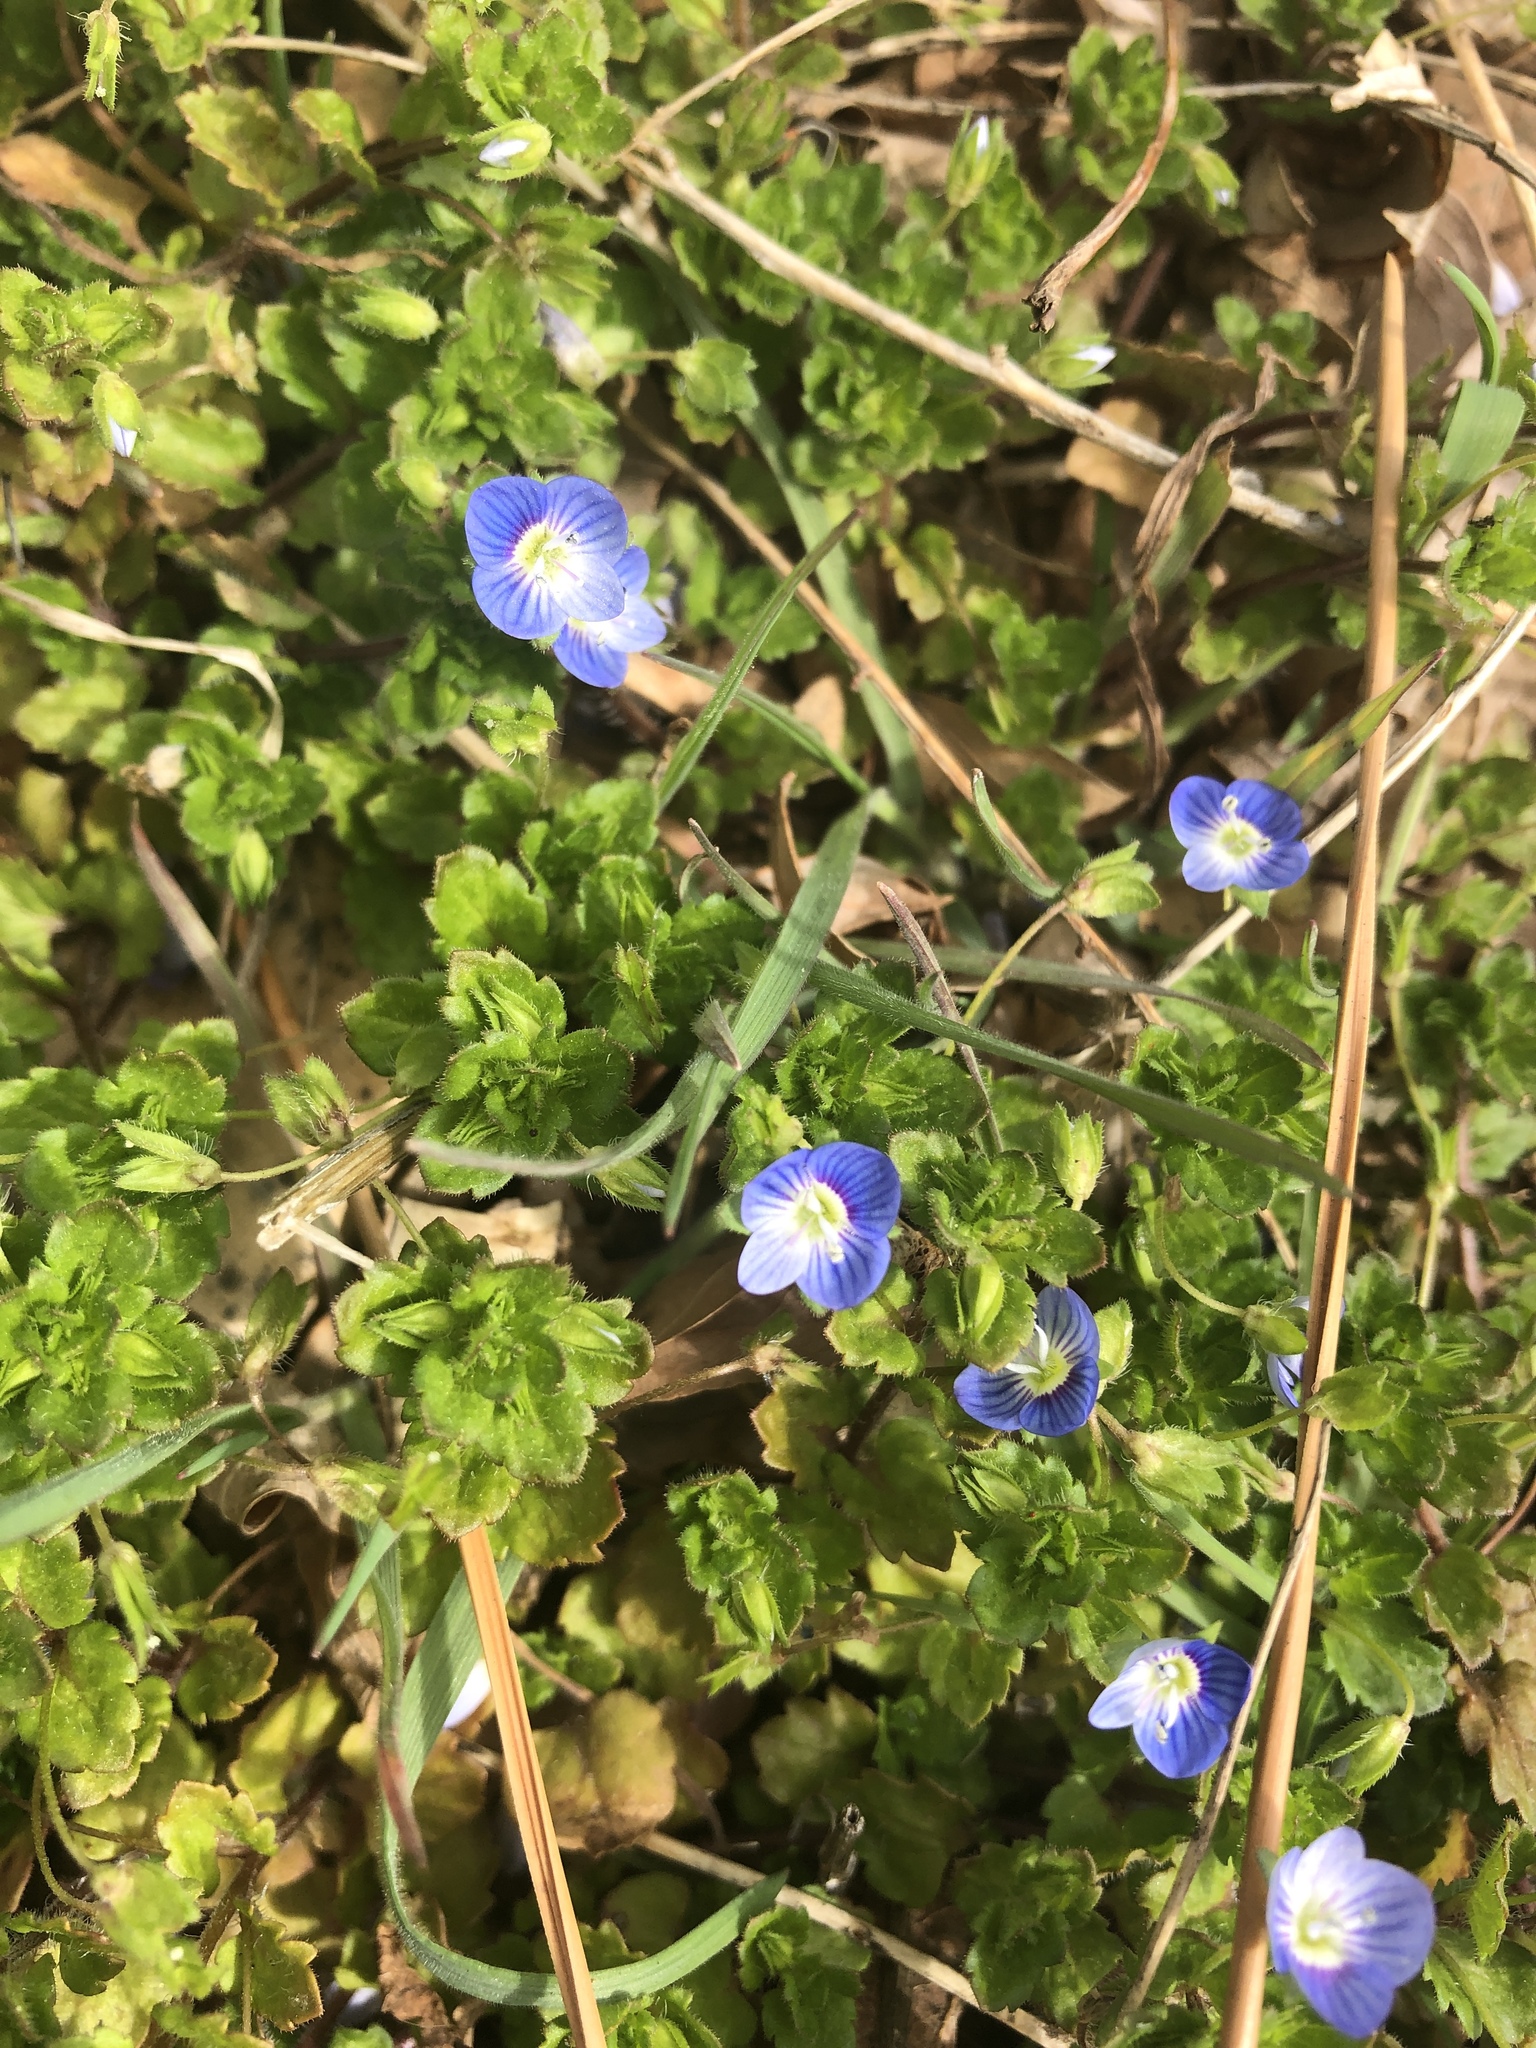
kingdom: Plantae
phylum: Tracheophyta
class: Magnoliopsida
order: Lamiales
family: Plantaginaceae
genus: Veronica
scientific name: Veronica persica
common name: Common field-speedwell
